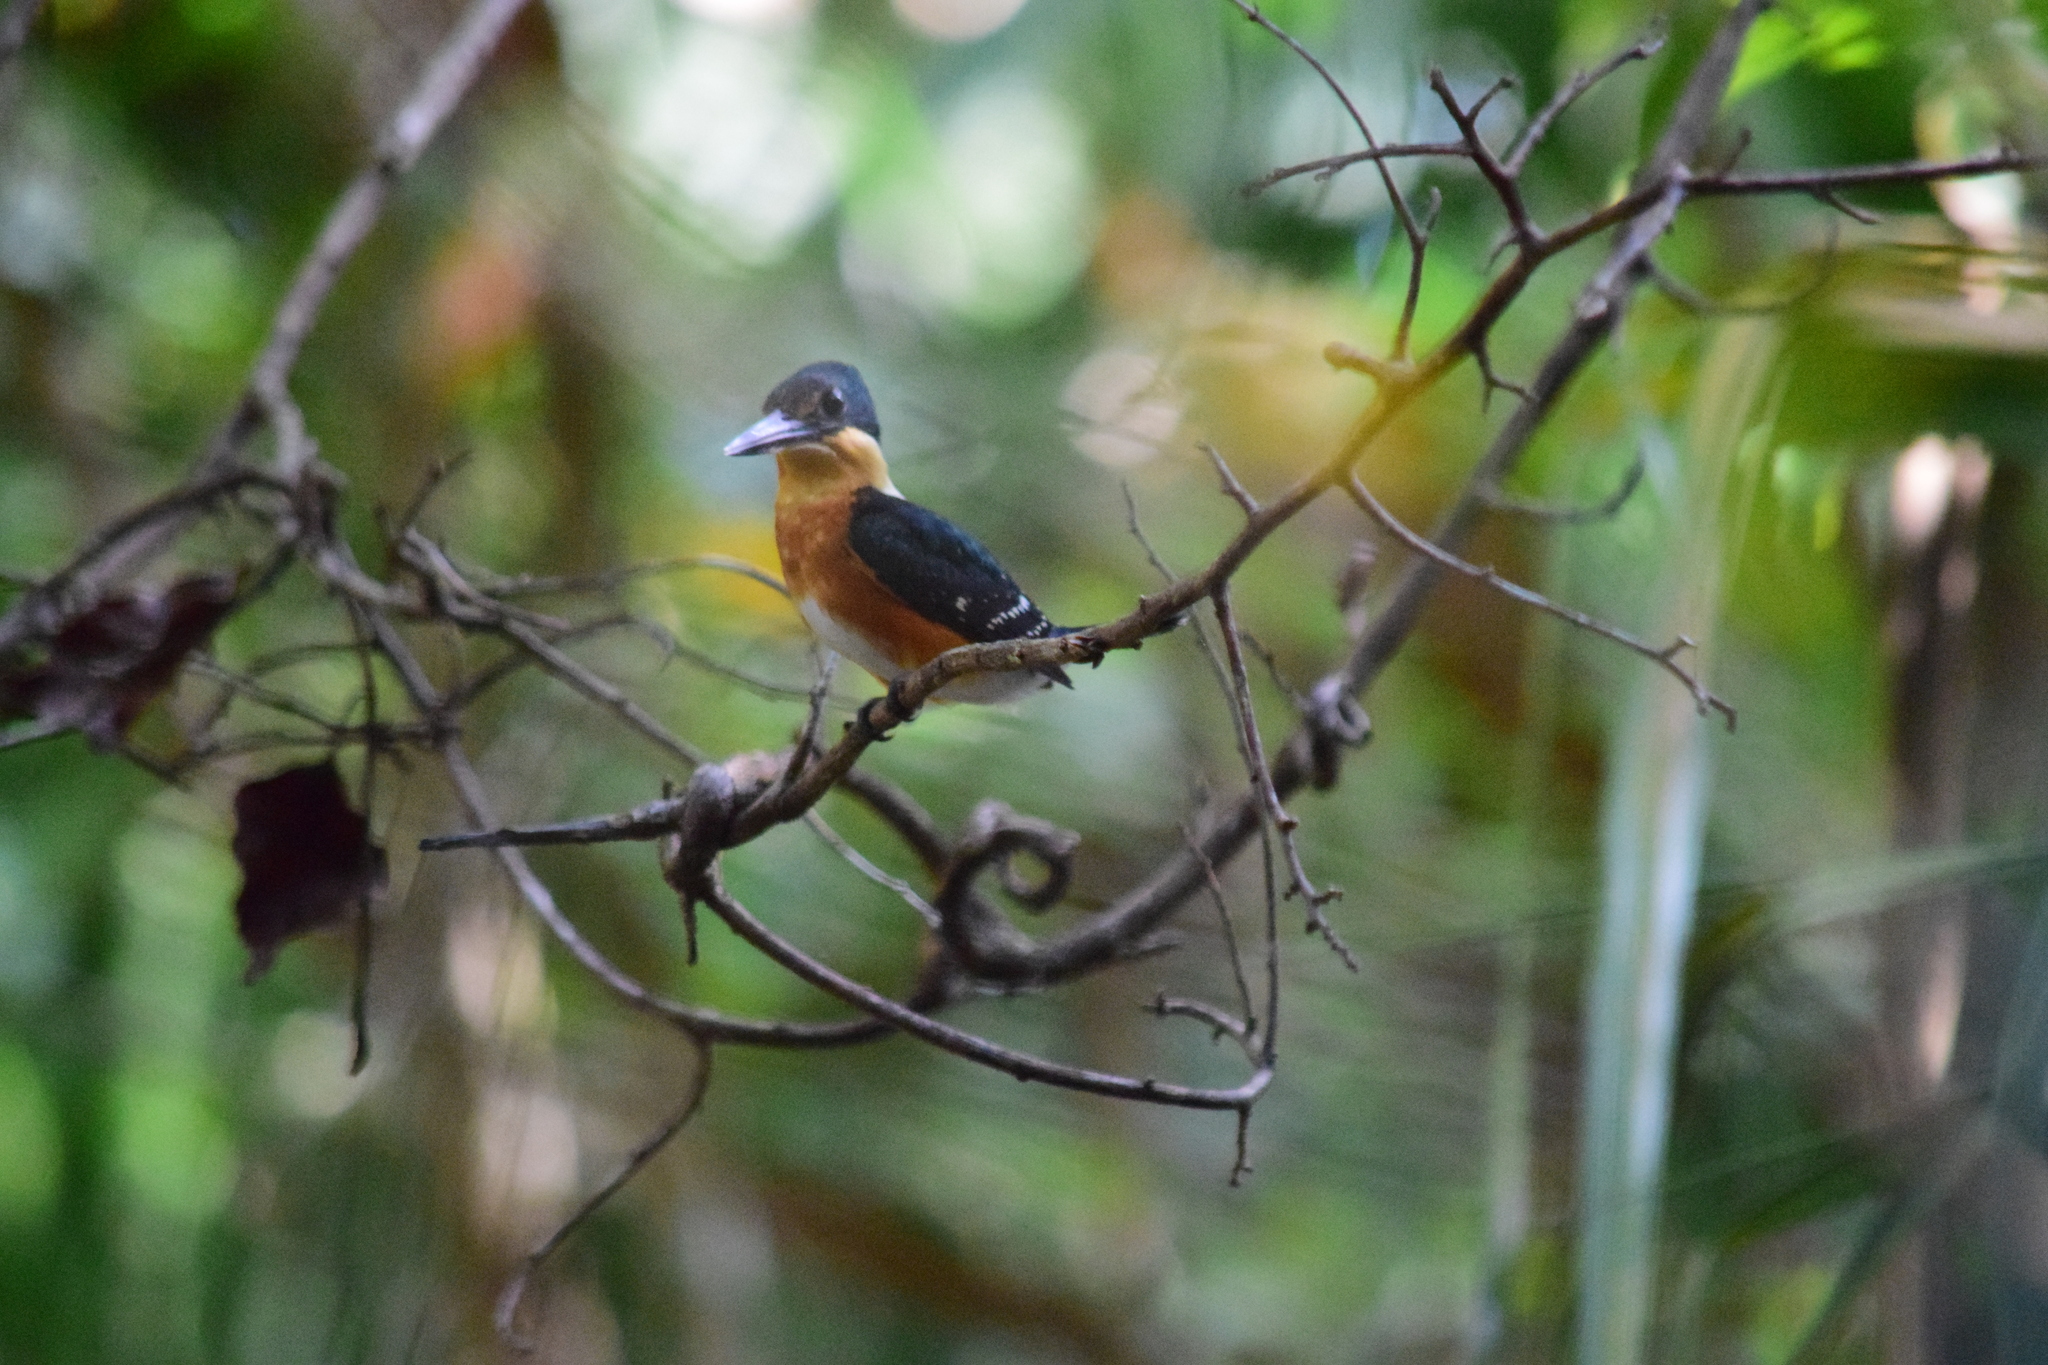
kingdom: Animalia
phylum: Chordata
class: Aves
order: Coraciiformes
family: Alcedinidae
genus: Chloroceryle
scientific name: Chloroceryle aenea
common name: American pygmy kingfisher
